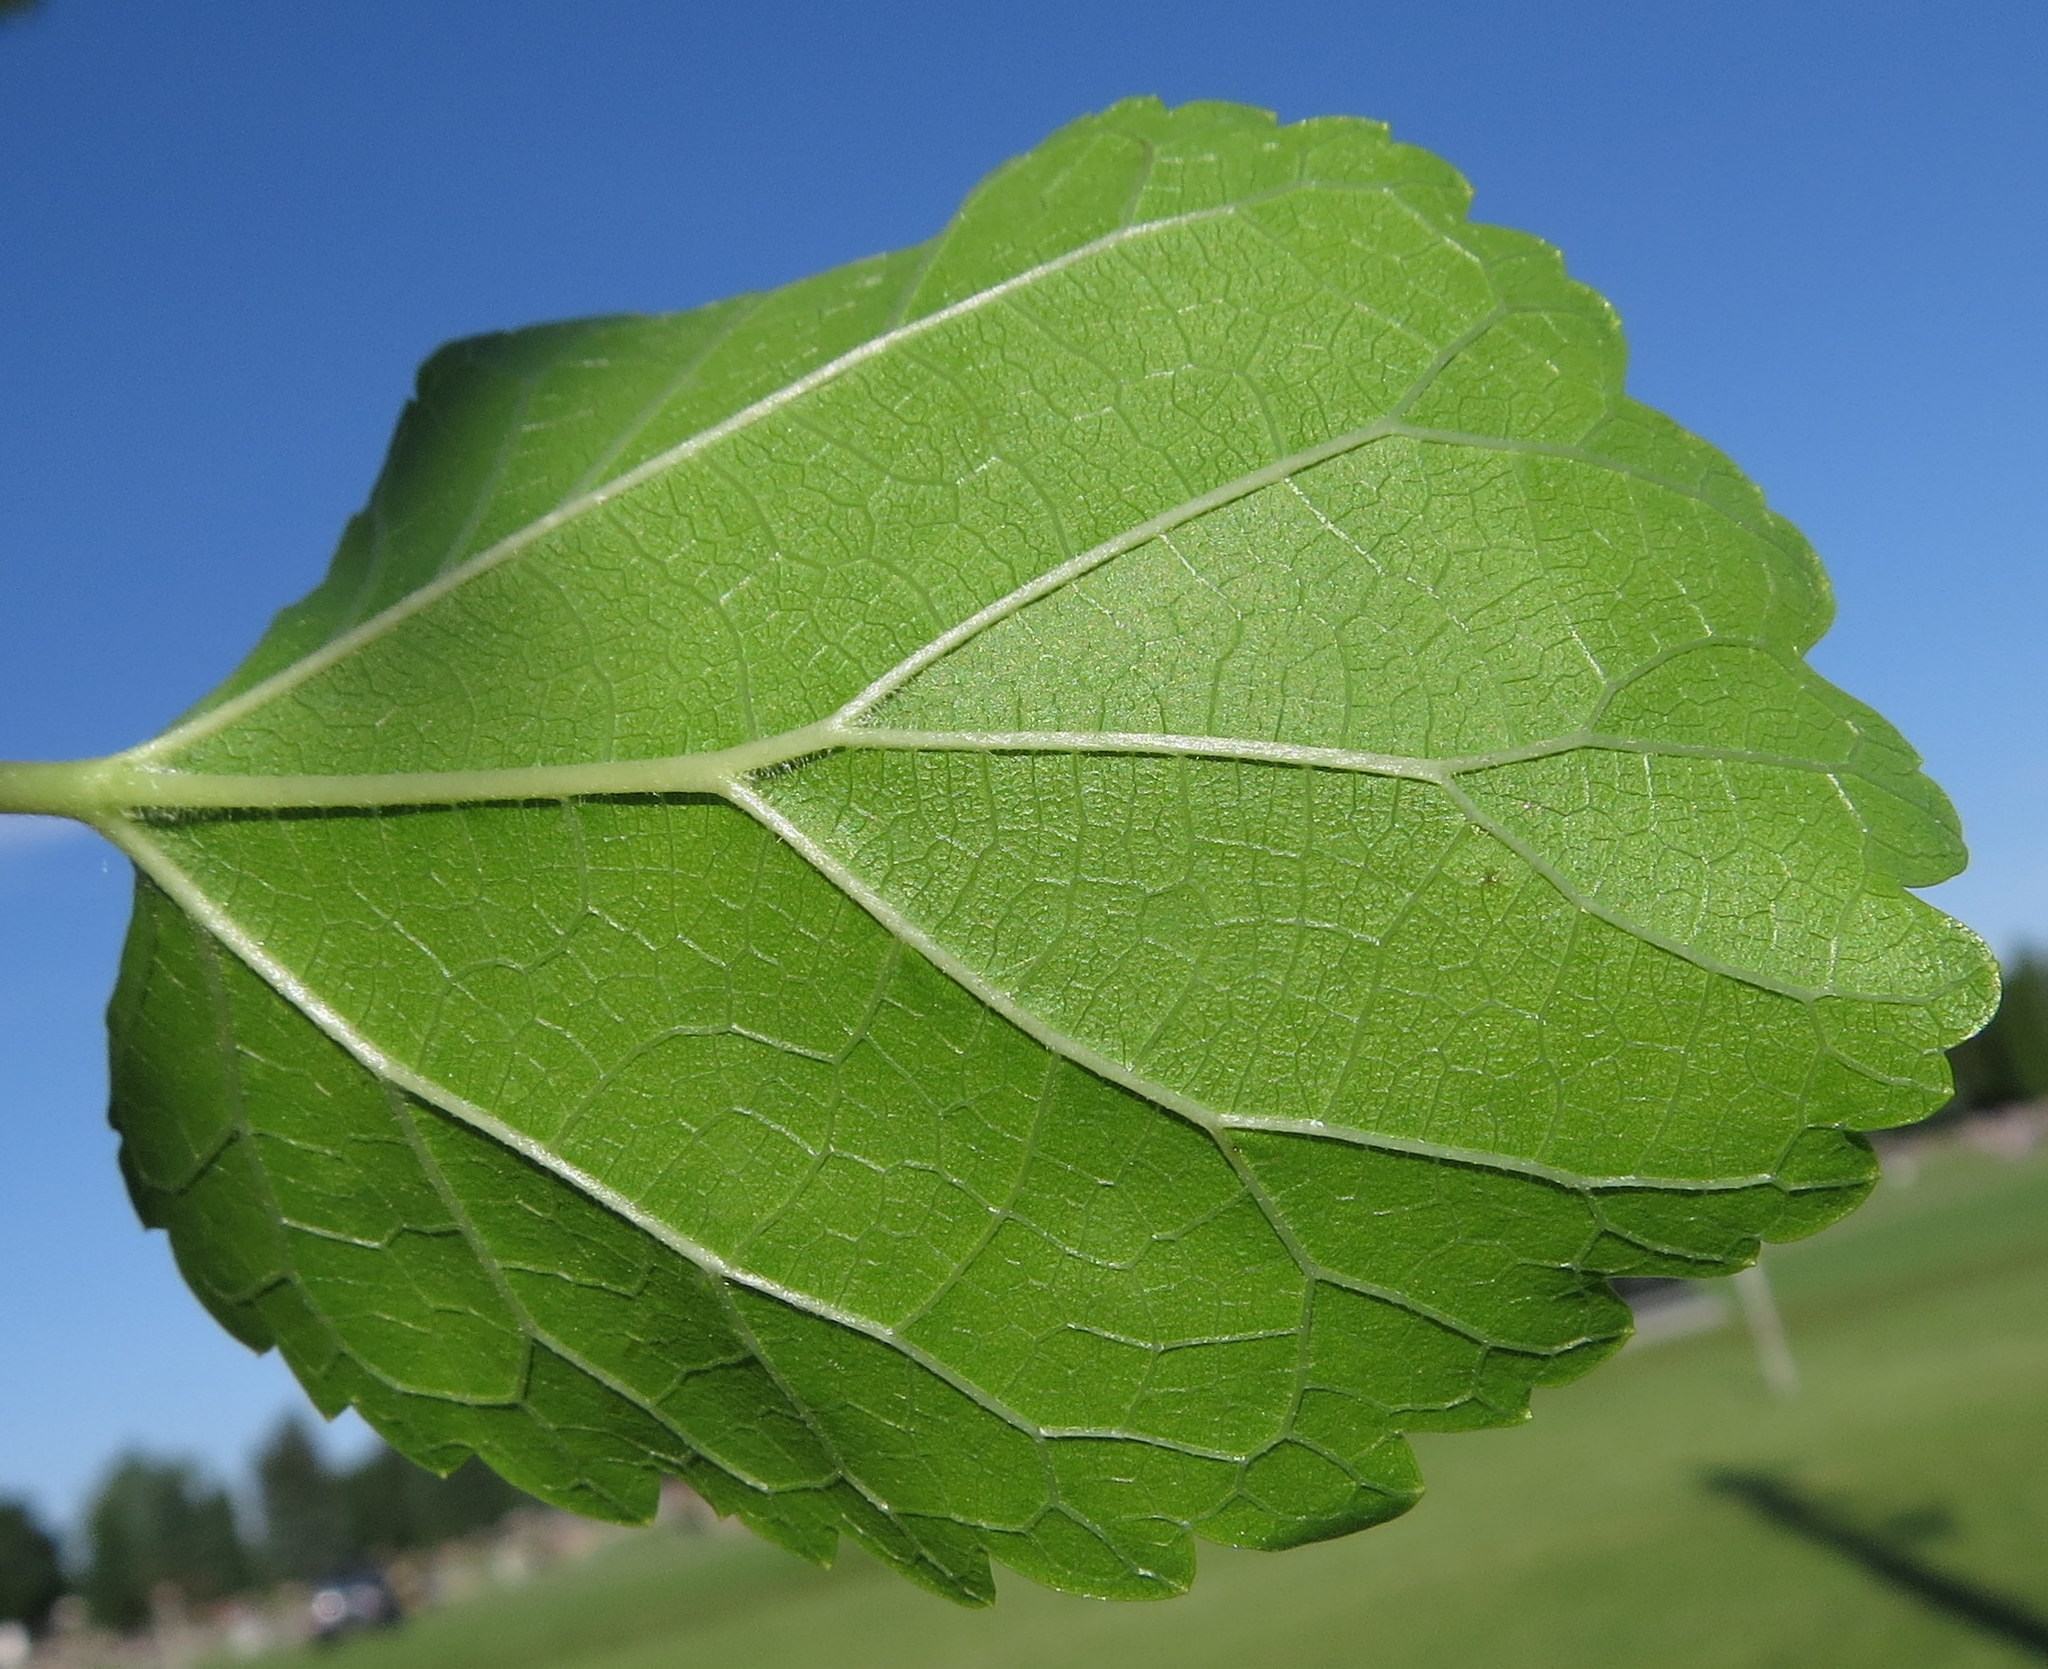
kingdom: Plantae
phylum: Tracheophyta
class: Magnoliopsida
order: Rosales
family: Moraceae
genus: Morus
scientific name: Morus alba
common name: White mulberry
